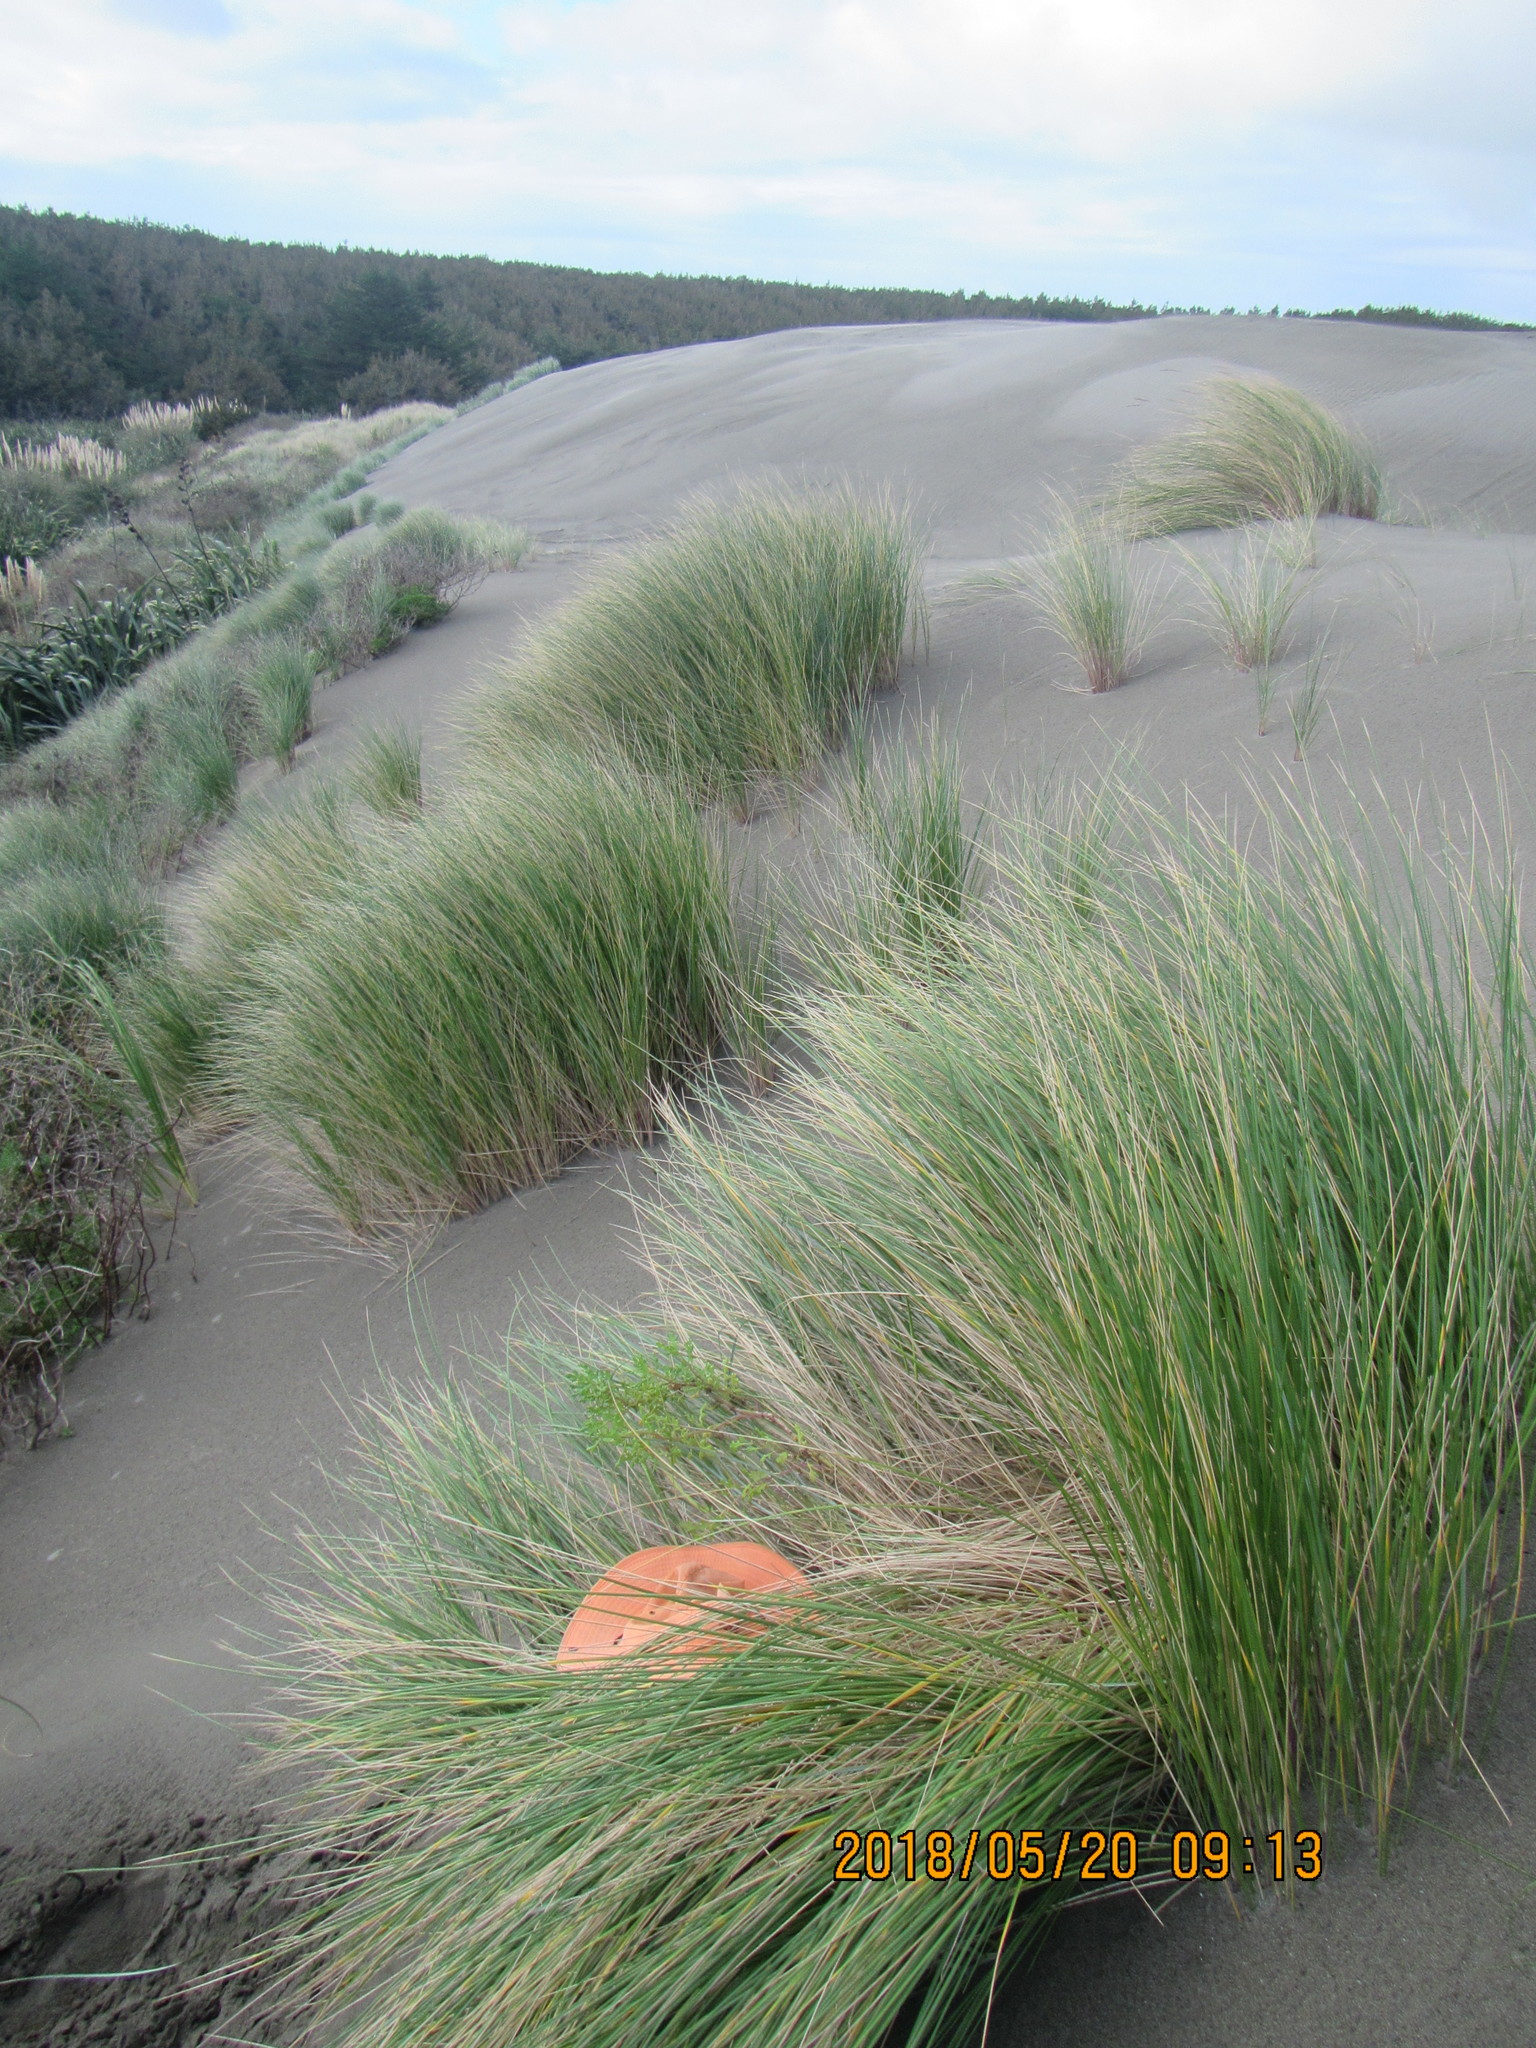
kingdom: Animalia
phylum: Arthropoda
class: Arachnida
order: Araneae
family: Theridiidae
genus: Cryptachaea
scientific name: Cryptachaea veruculata
